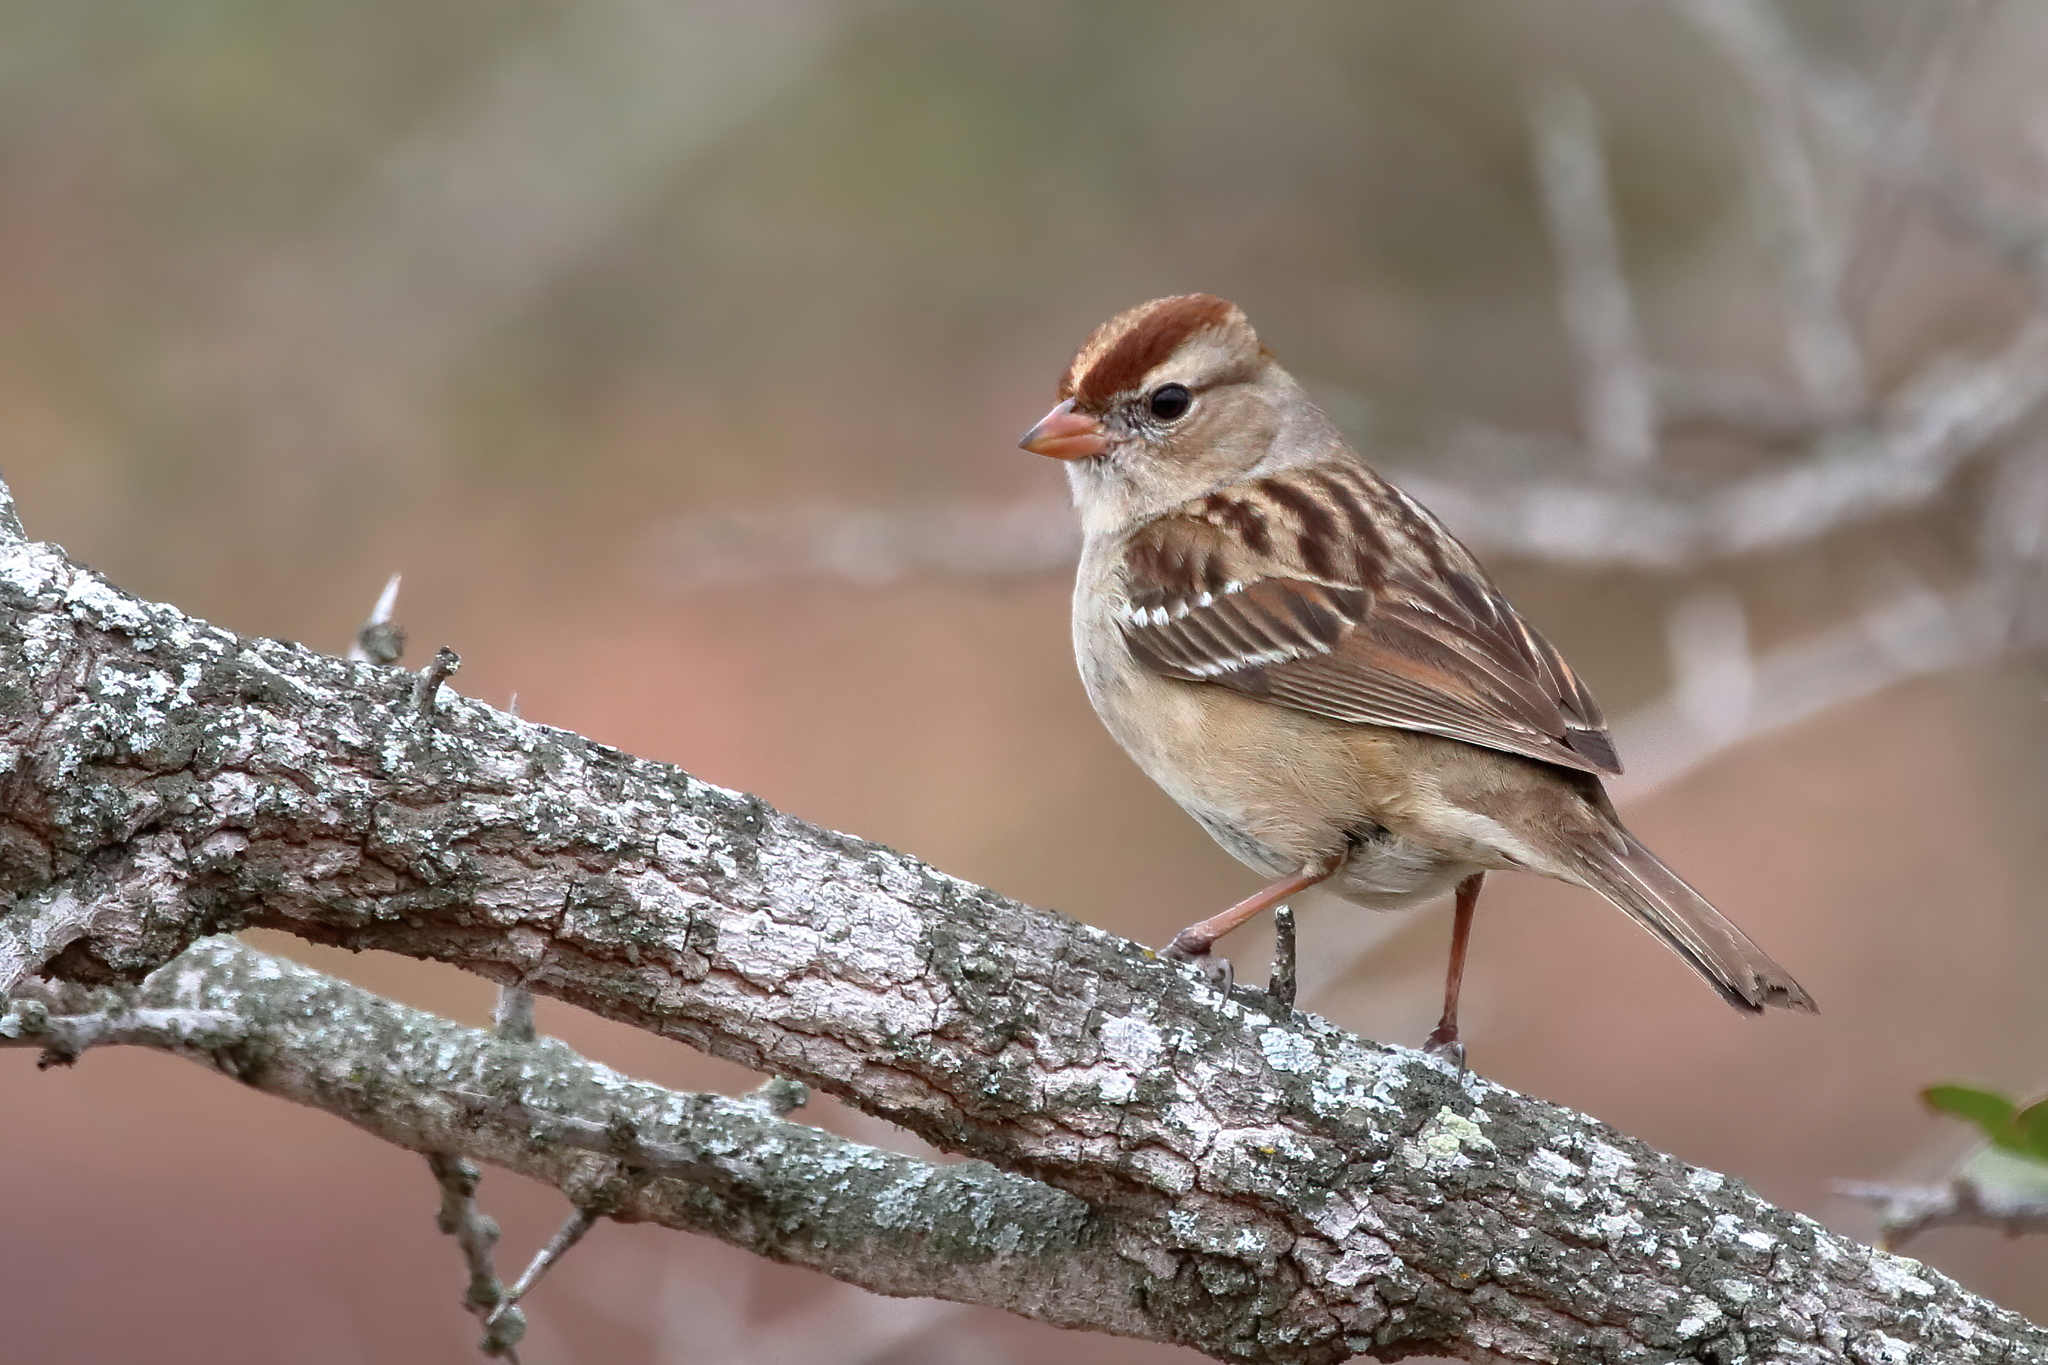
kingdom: Animalia
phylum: Chordata
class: Aves
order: Passeriformes
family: Passerellidae
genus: Zonotrichia
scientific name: Zonotrichia leucophrys
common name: White-crowned sparrow
